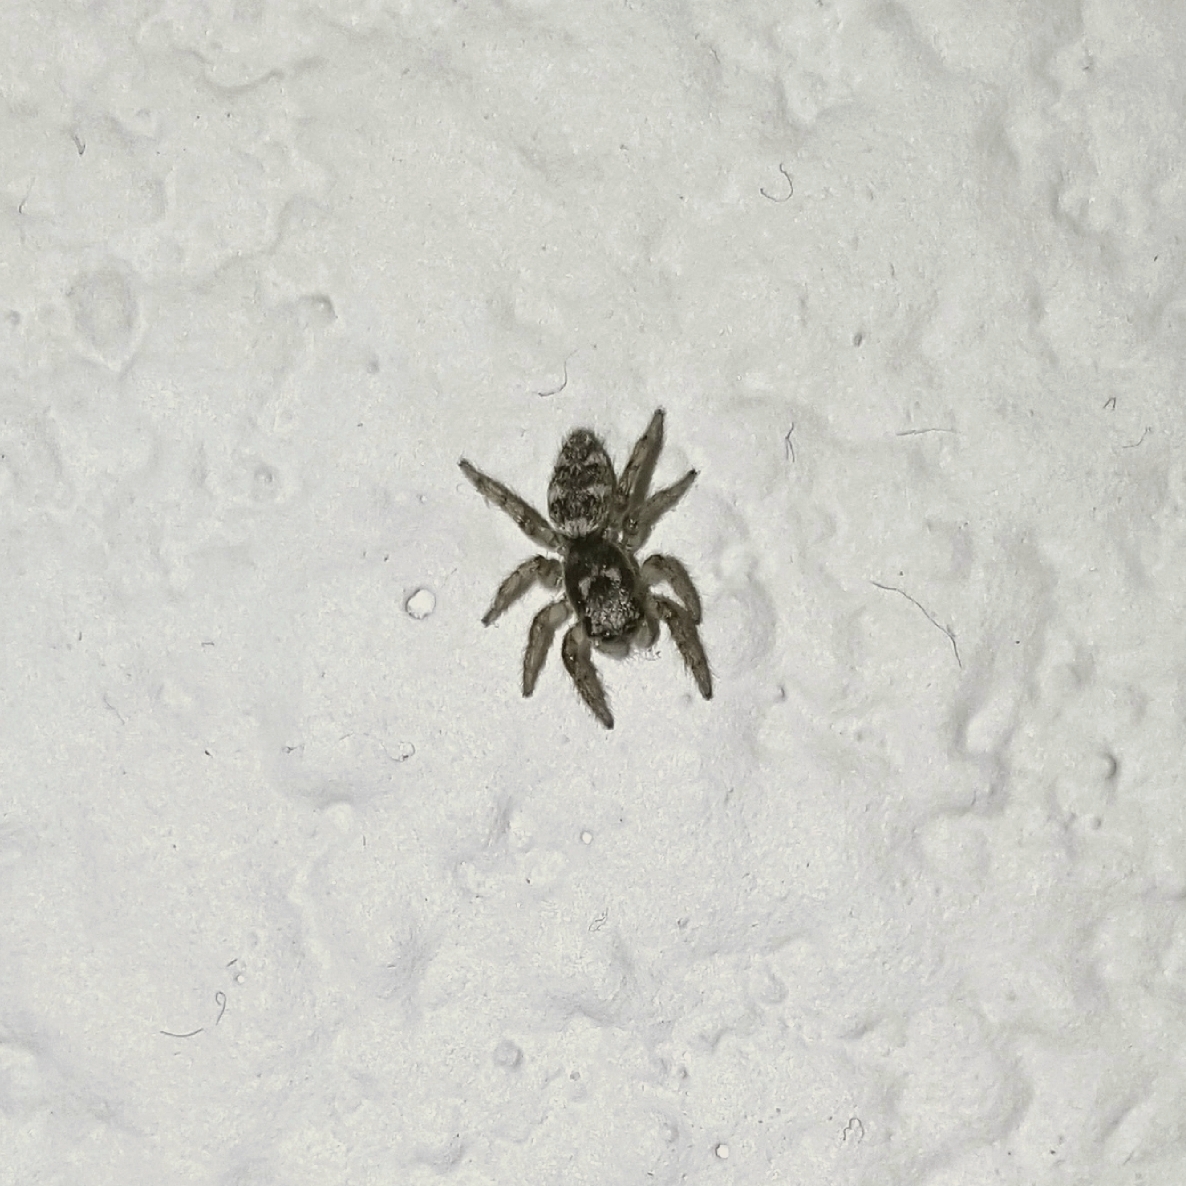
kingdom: Animalia
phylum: Arthropoda
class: Arachnida
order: Araneae
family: Salticidae
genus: Salticus
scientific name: Salticus scenicus
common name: Zebra jumper
